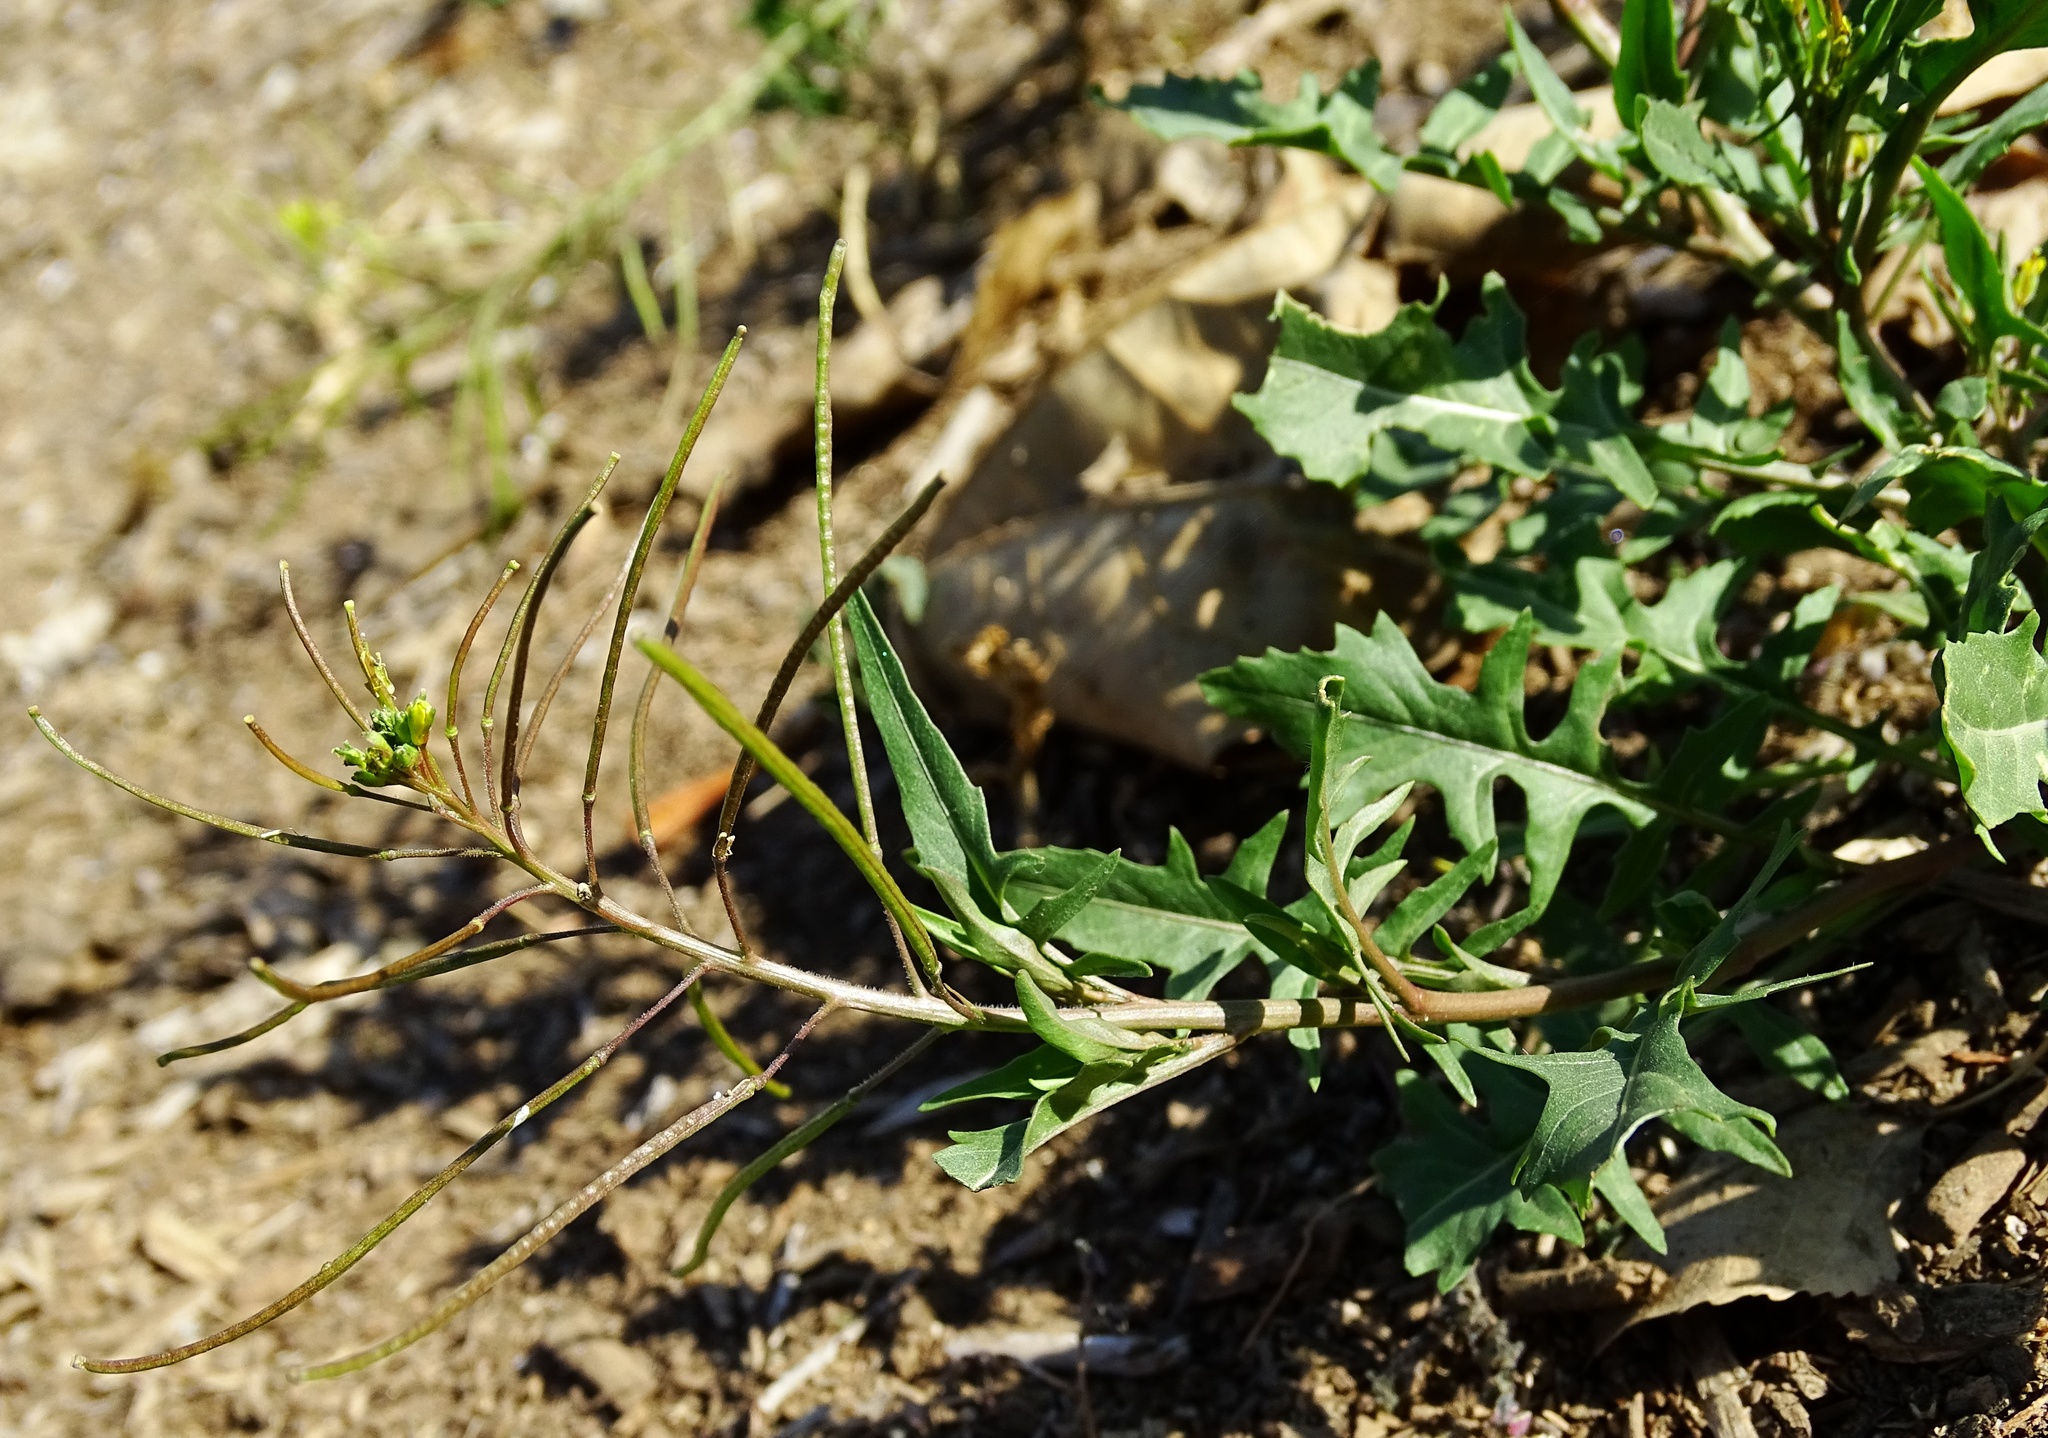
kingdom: Plantae
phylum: Tracheophyta
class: Magnoliopsida
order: Brassicales
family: Brassicaceae
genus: Sisymbrium
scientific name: Sisymbrium irio
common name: London rocket
